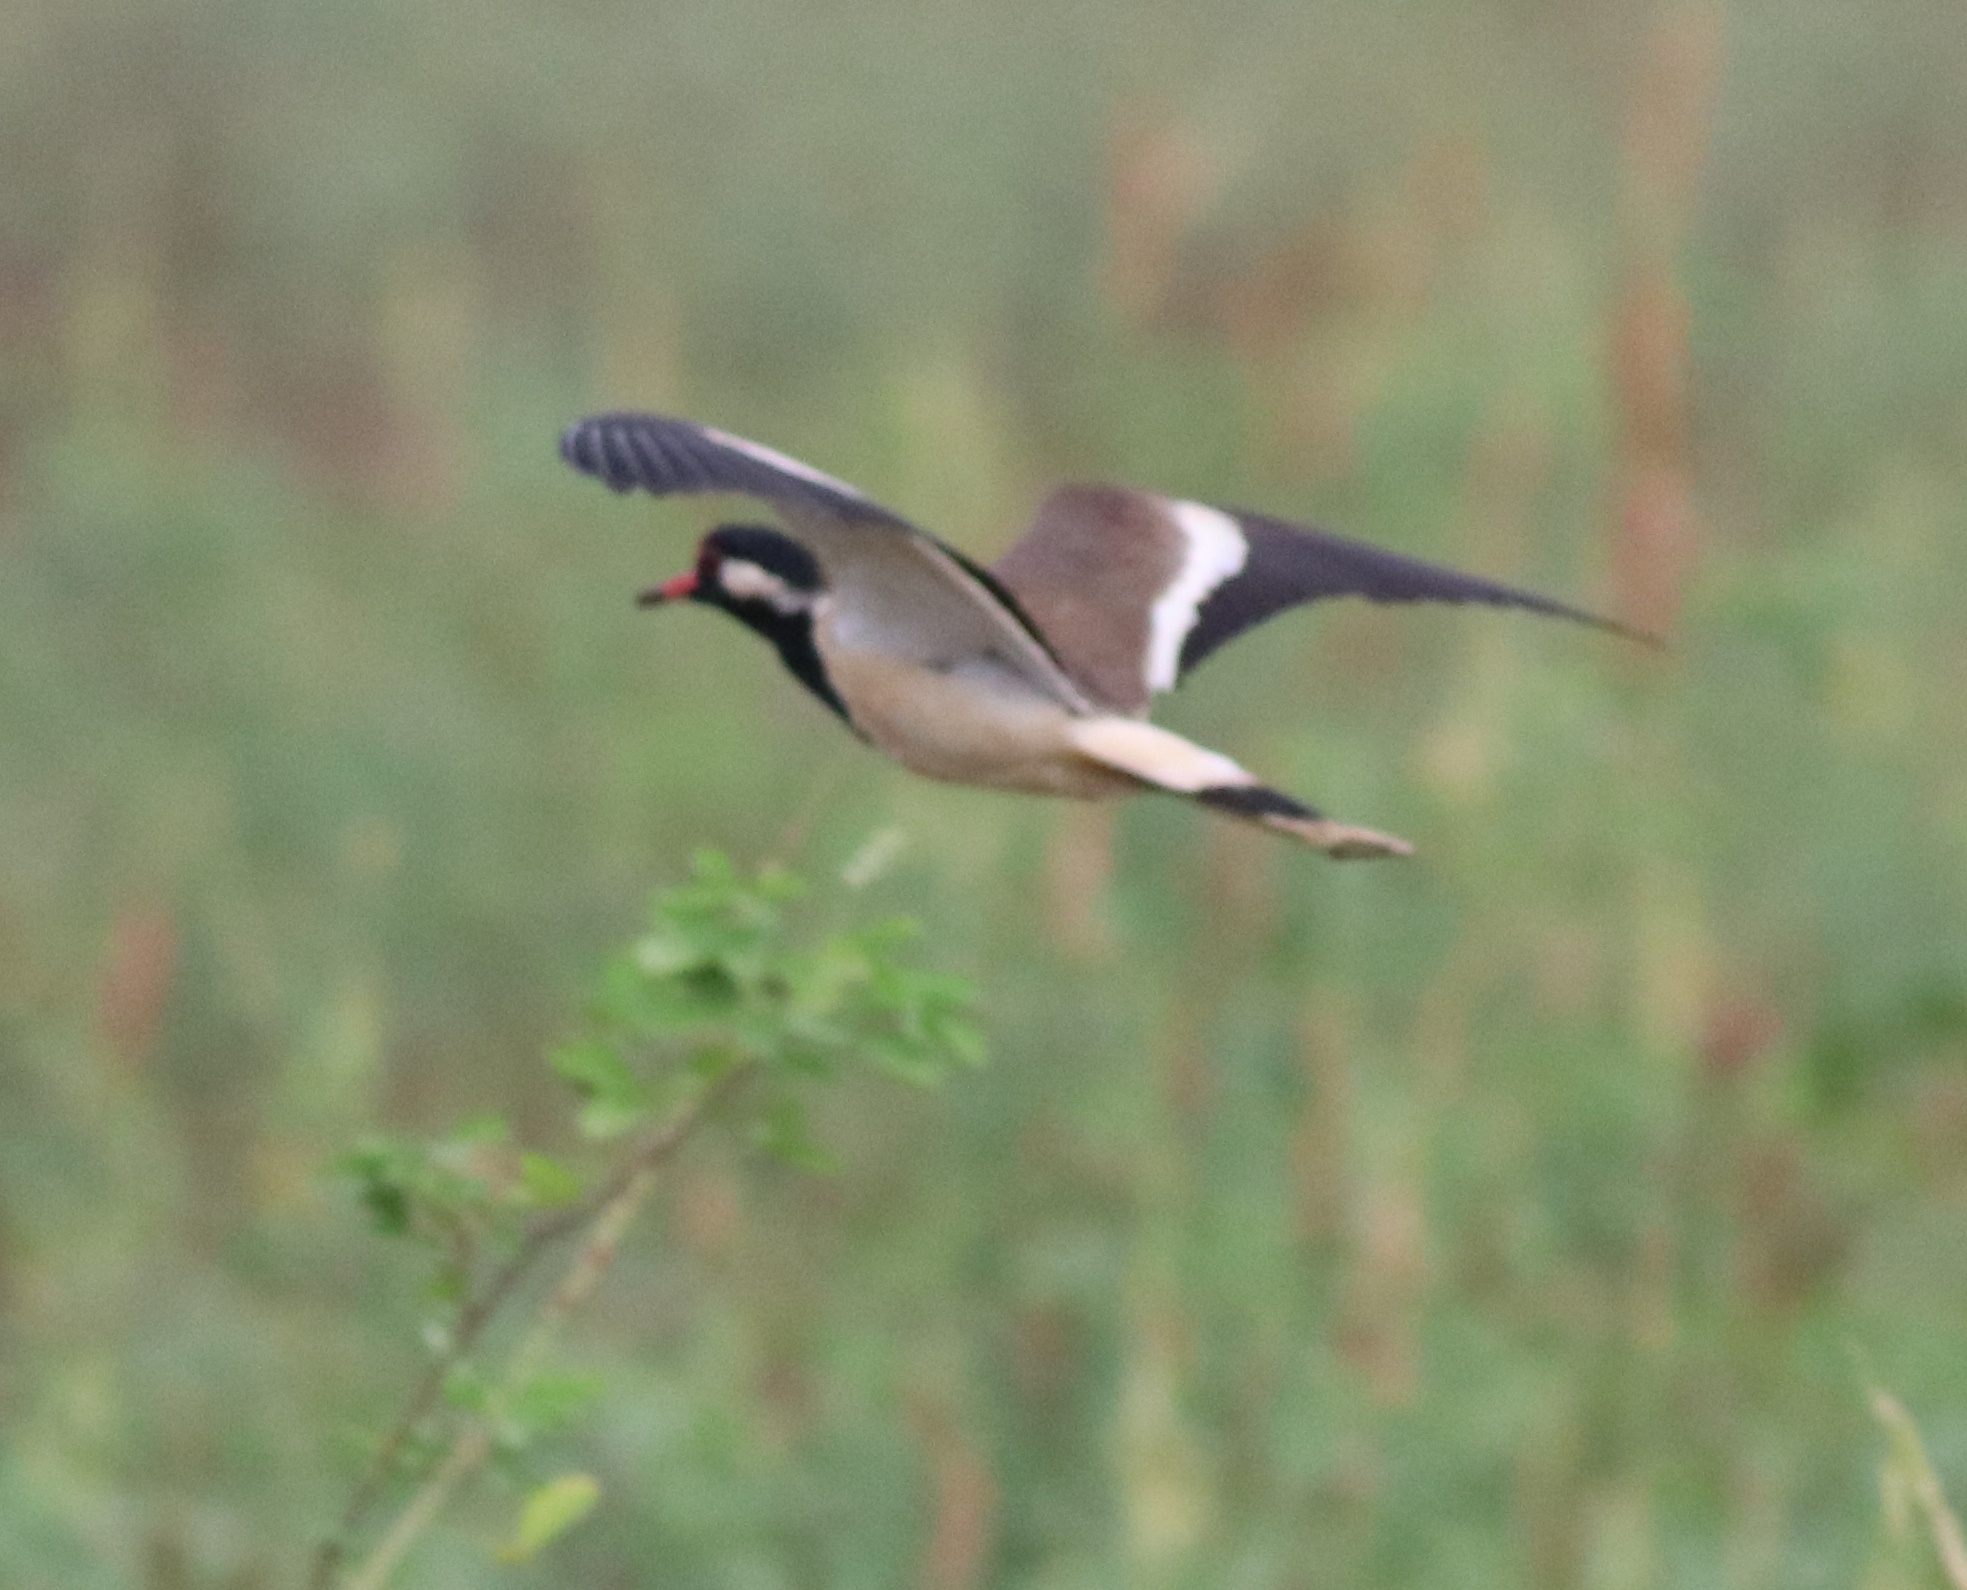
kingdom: Animalia
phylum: Chordata
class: Aves
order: Charadriiformes
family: Charadriidae
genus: Vanellus
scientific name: Vanellus indicus
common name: Red-wattled lapwing
